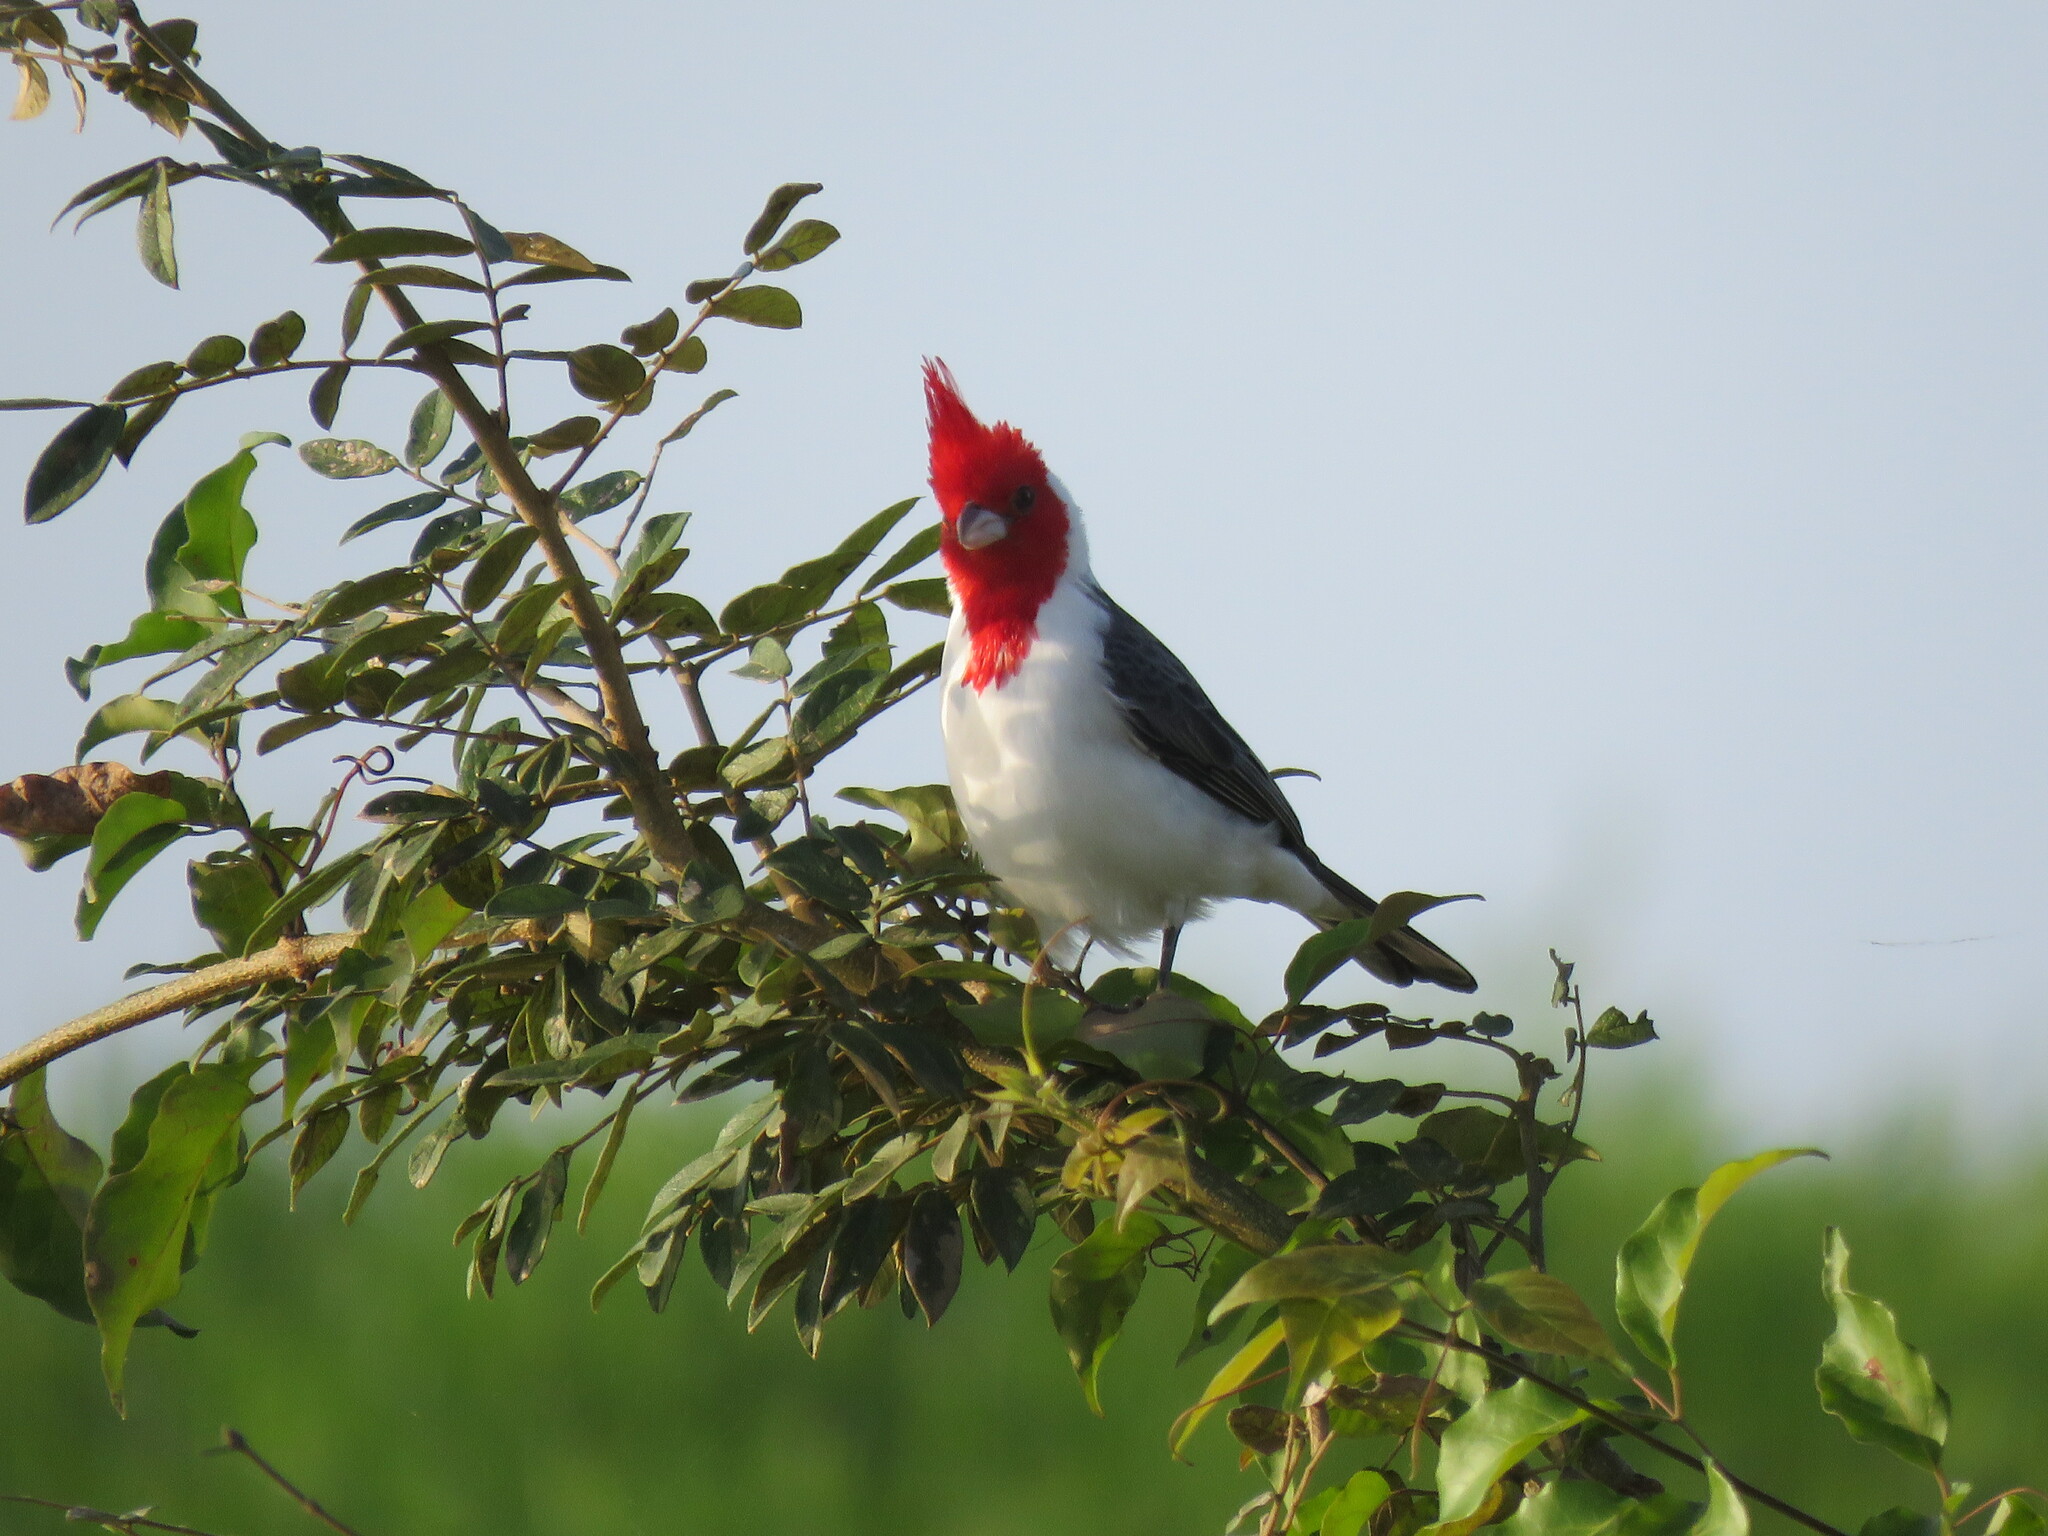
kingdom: Animalia
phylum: Chordata
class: Aves
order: Passeriformes
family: Thraupidae
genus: Paroaria
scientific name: Paroaria coronata
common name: Red-crested cardinal
